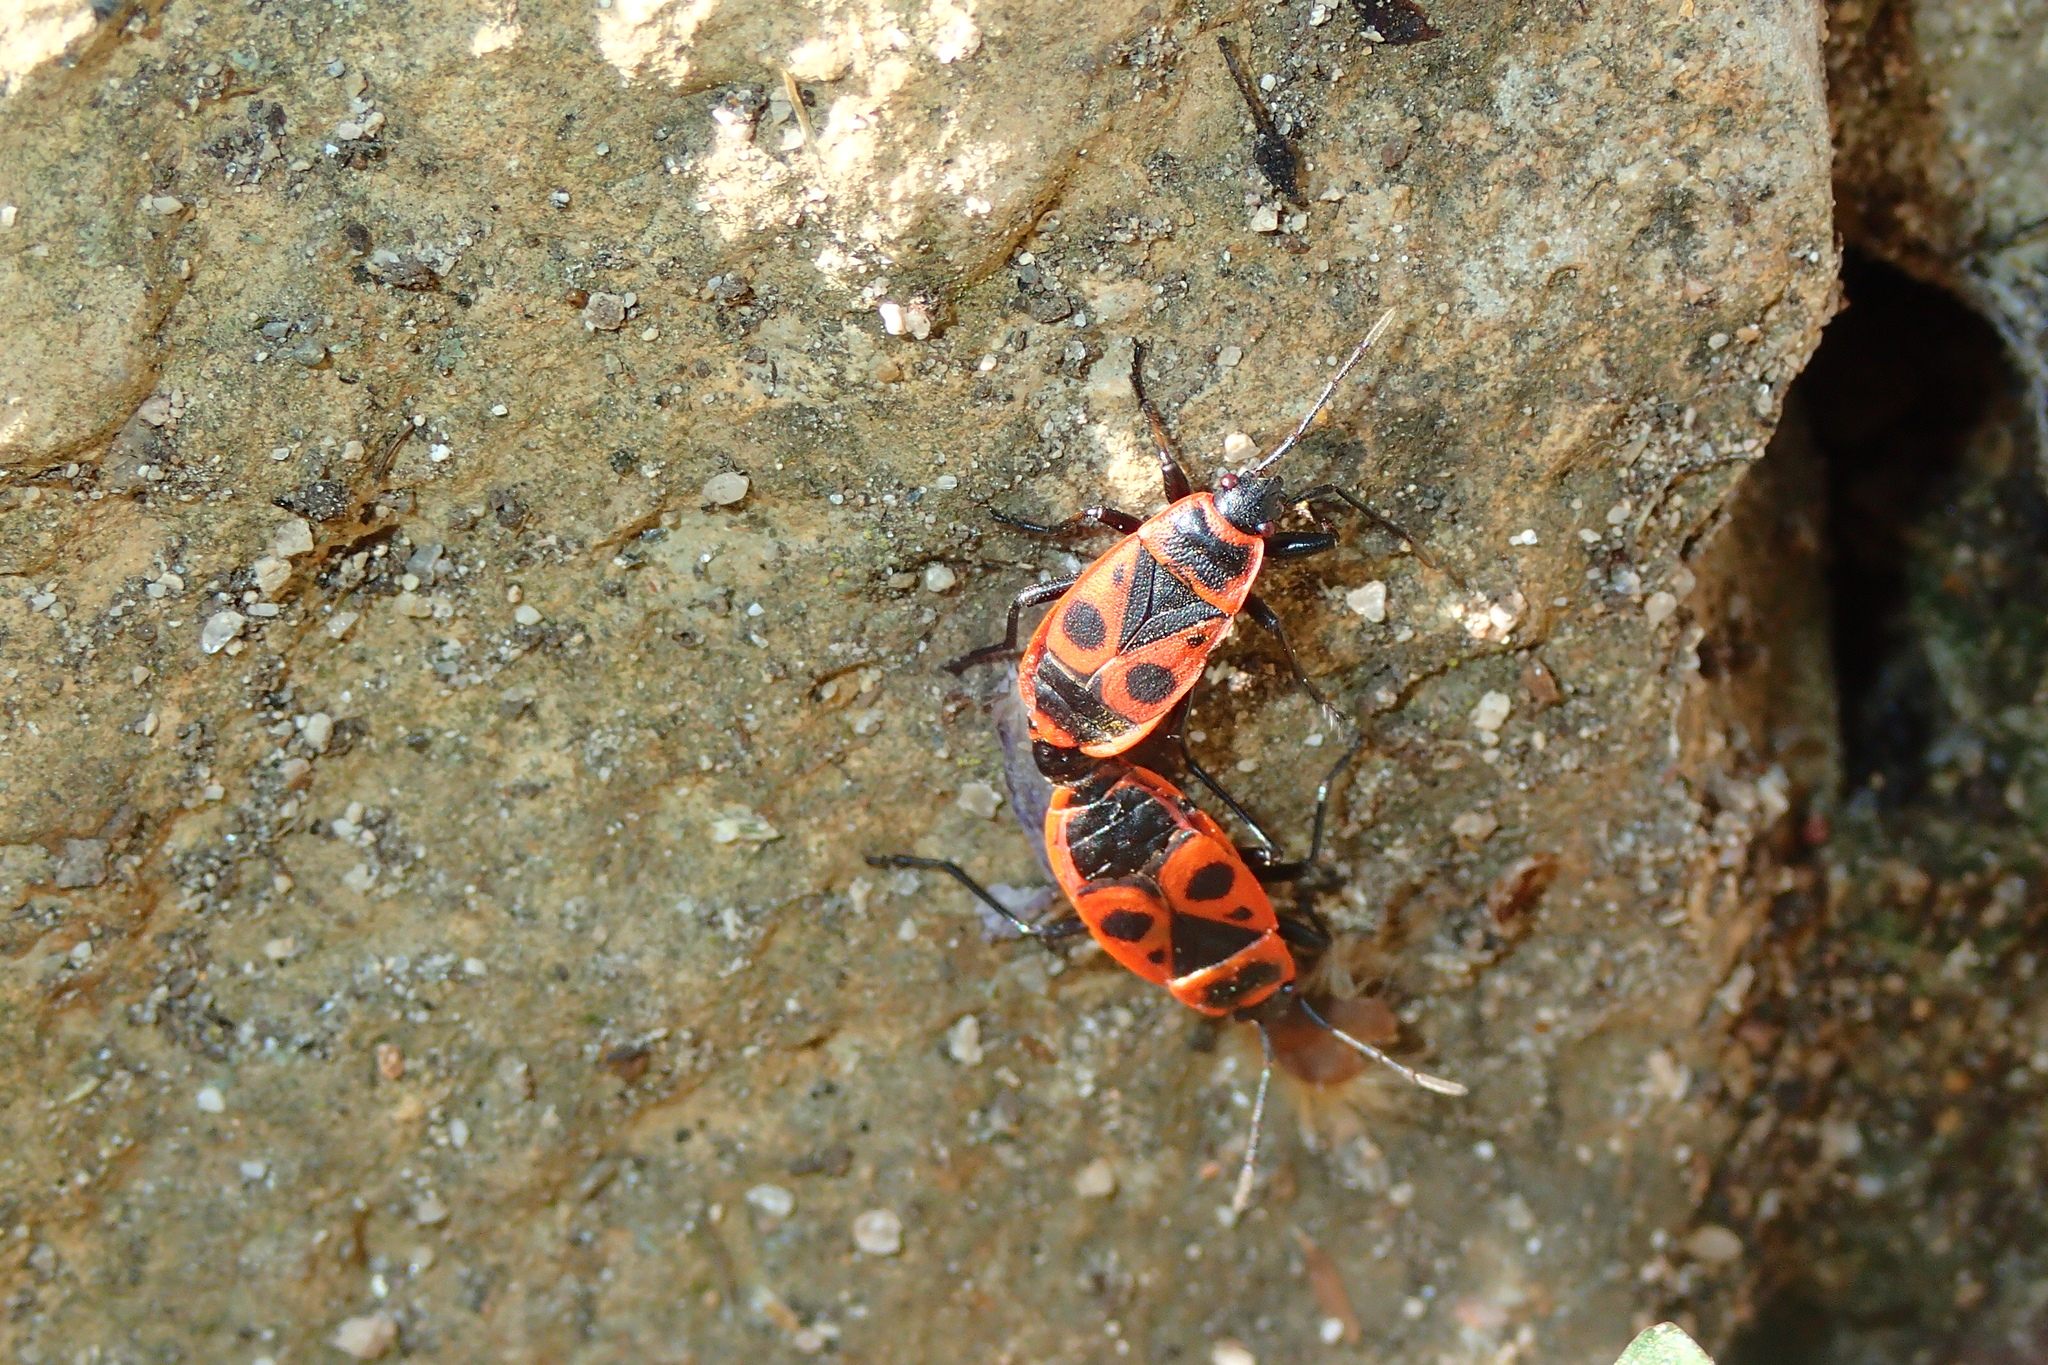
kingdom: Animalia
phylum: Arthropoda
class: Insecta
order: Hemiptera
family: Pyrrhocoridae
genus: Pyrrhocoris
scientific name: Pyrrhocoris apterus
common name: Firebug
